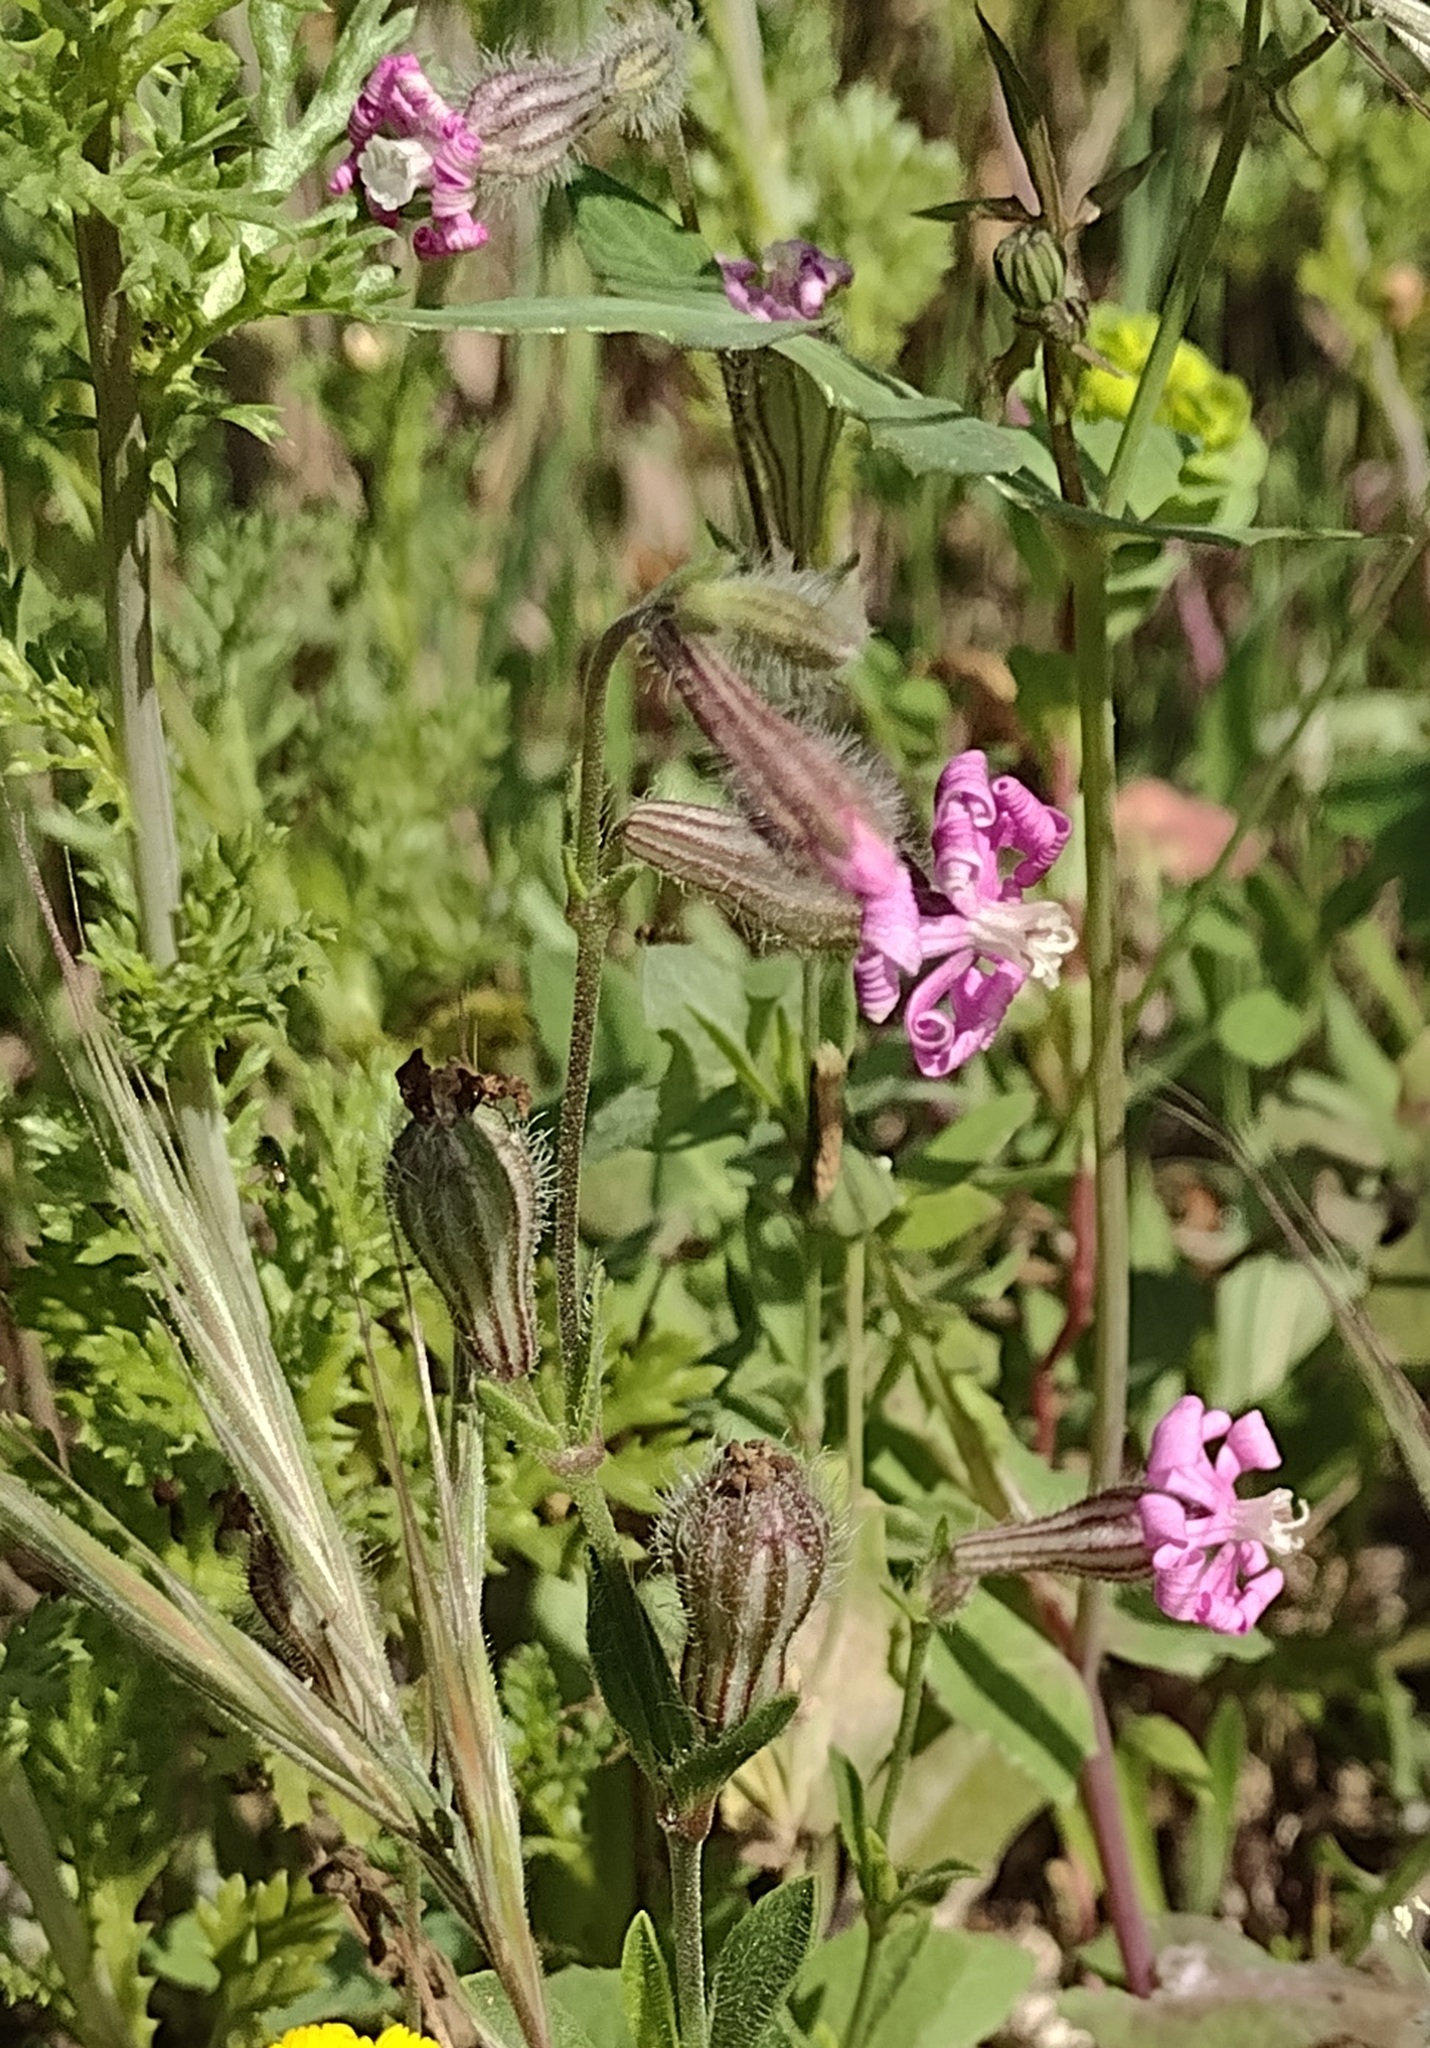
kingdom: Plantae
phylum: Tracheophyta
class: Magnoliopsida
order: Caryophyllales
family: Caryophyllaceae
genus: Silene
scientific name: Silene colorata
